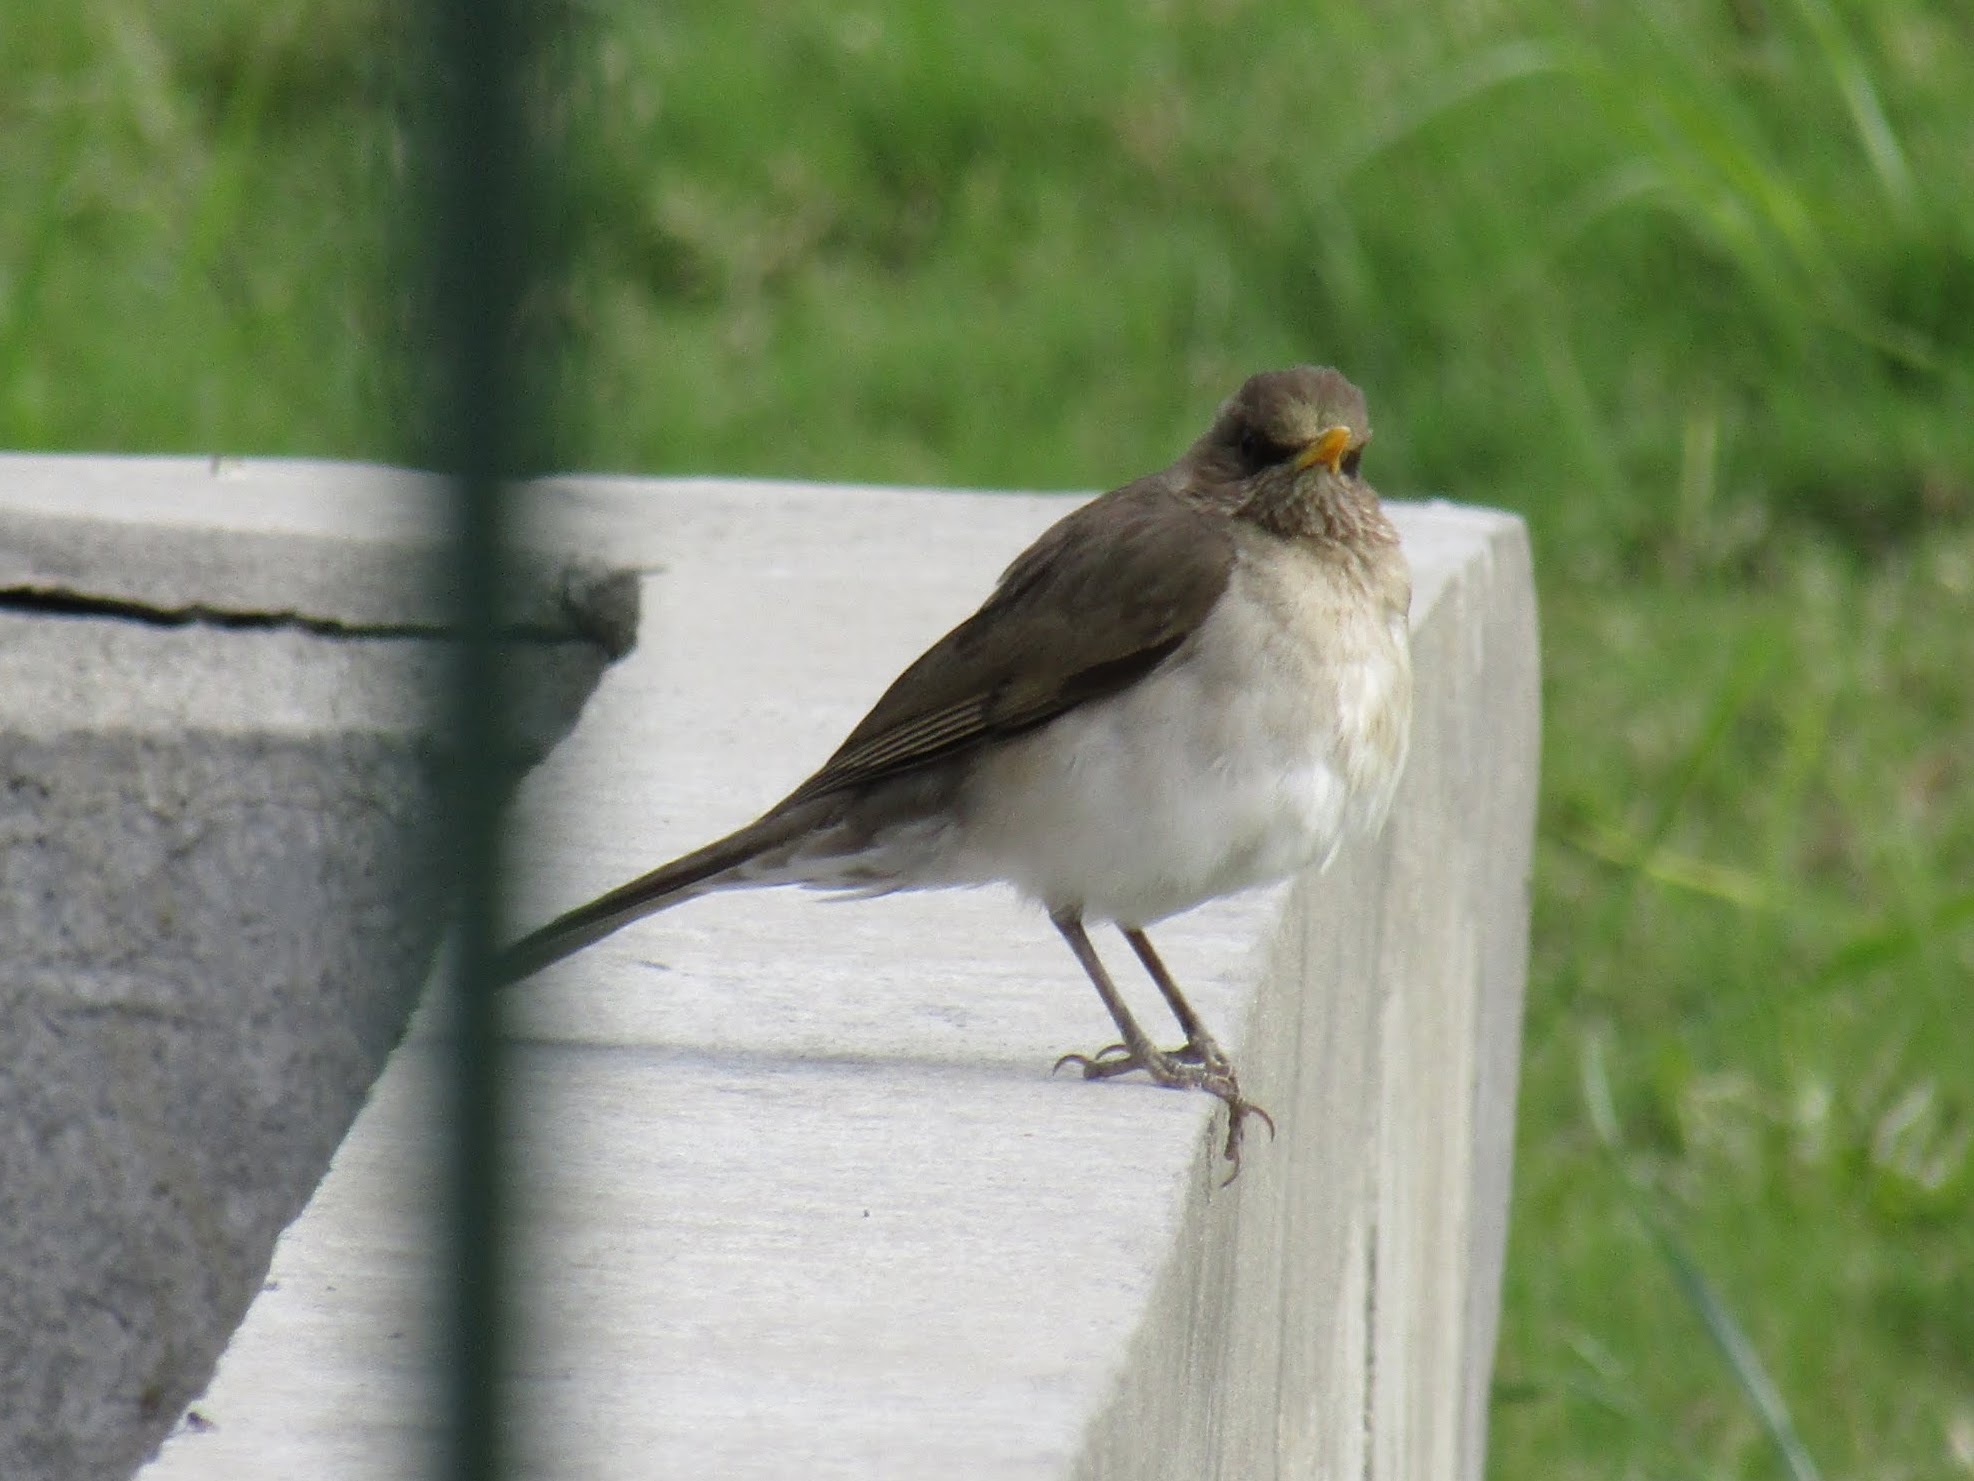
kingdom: Animalia
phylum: Chordata
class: Aves
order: Passeriformes
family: Turdidae
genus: Turdus
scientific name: Turdus amaurochalinus
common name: Creamy-bellied thrush
